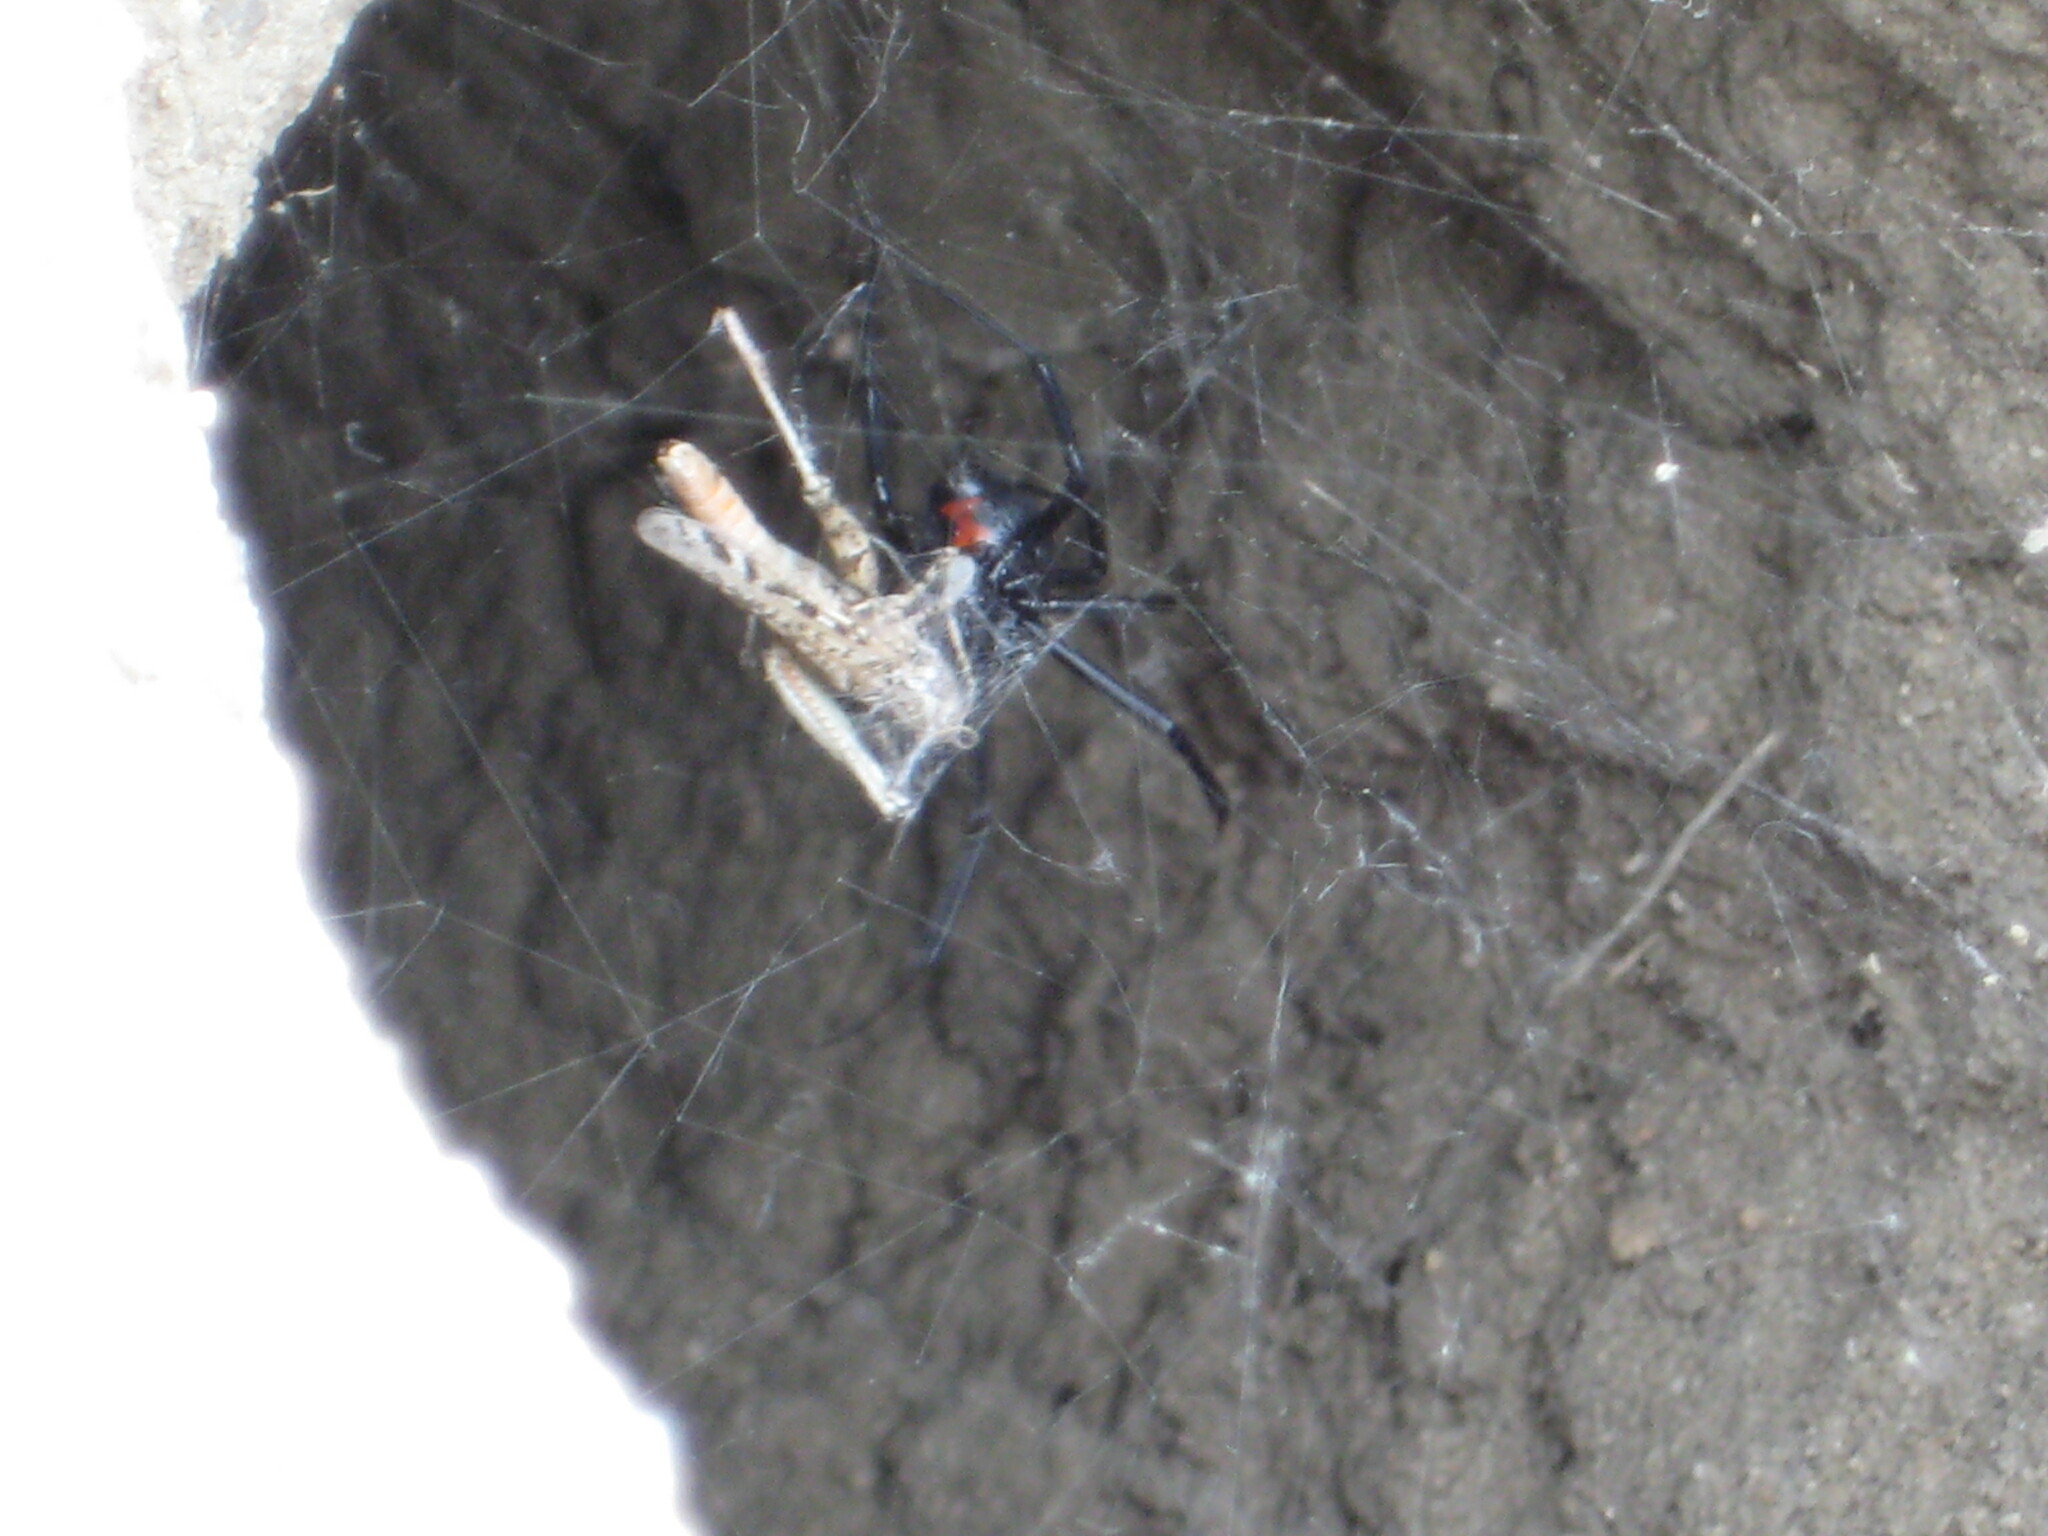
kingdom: Animalia
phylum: Arthropoda
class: Arachnida
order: Araneae
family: Theridiidae
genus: Latrodectus
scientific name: Latrodectus hesperus
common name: Western black widow
